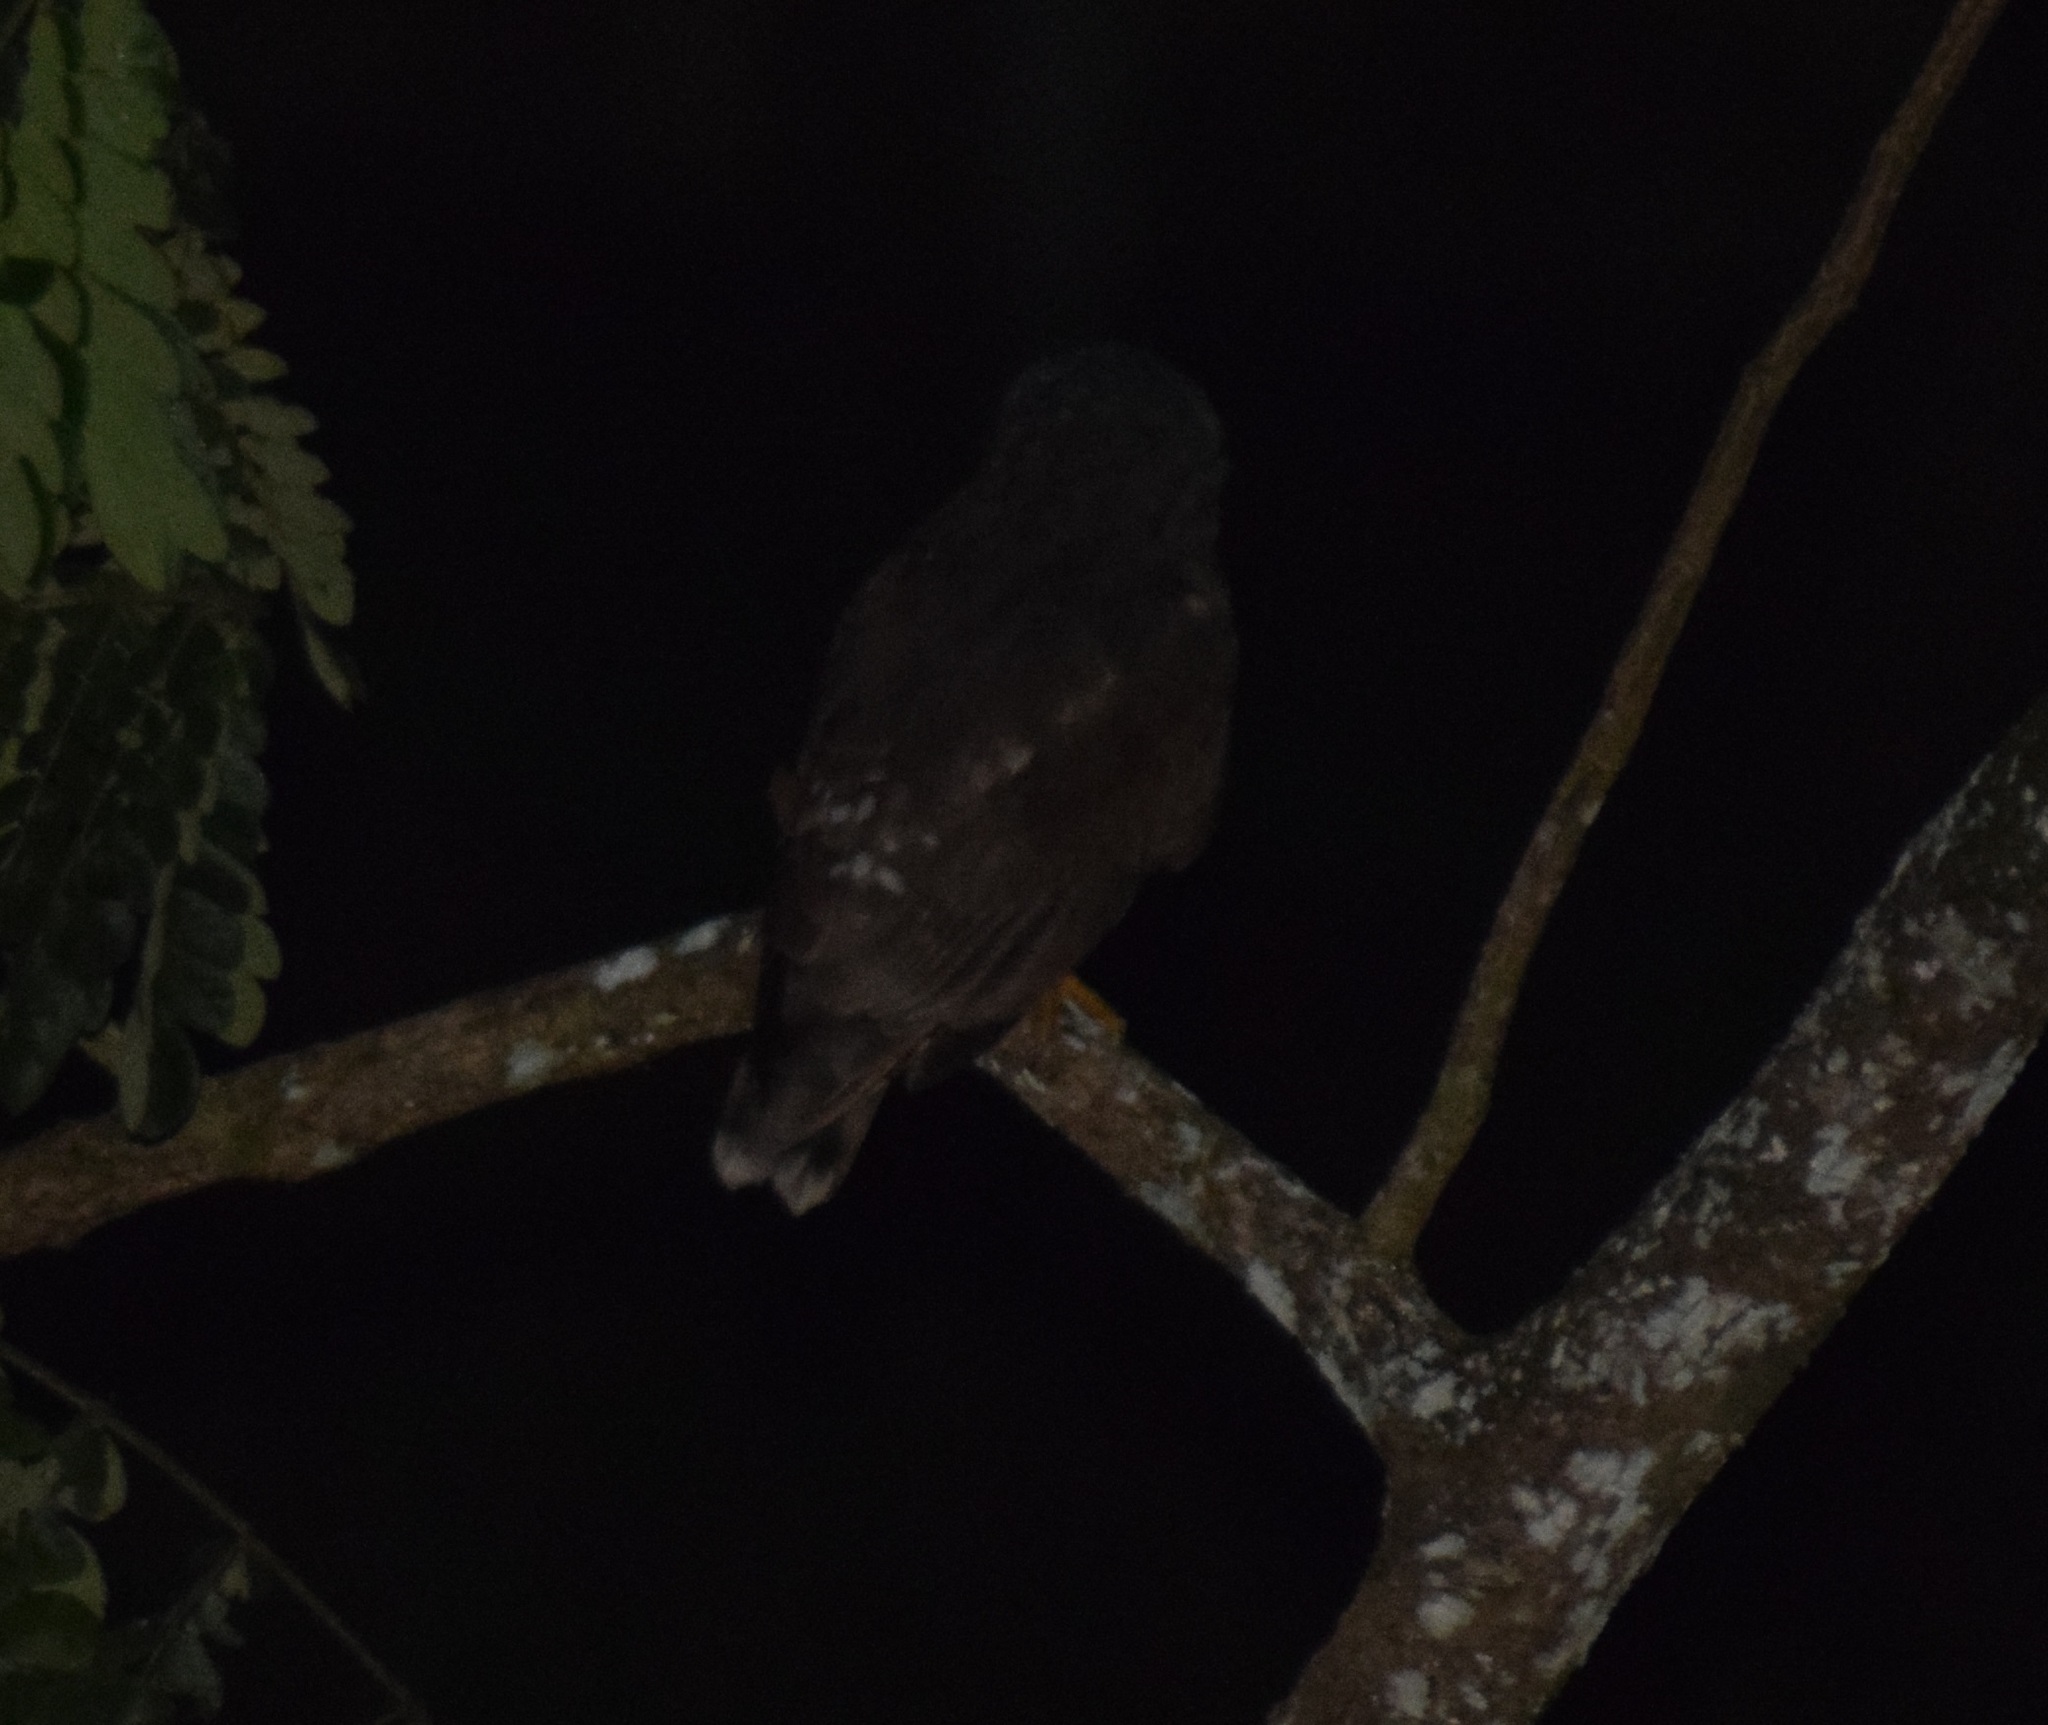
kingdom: Animalia
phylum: Chordata
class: Aves
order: Strigiformes
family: Strigidae
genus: Ninox
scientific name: Ninox scutulata
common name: Brown hawk-owl
